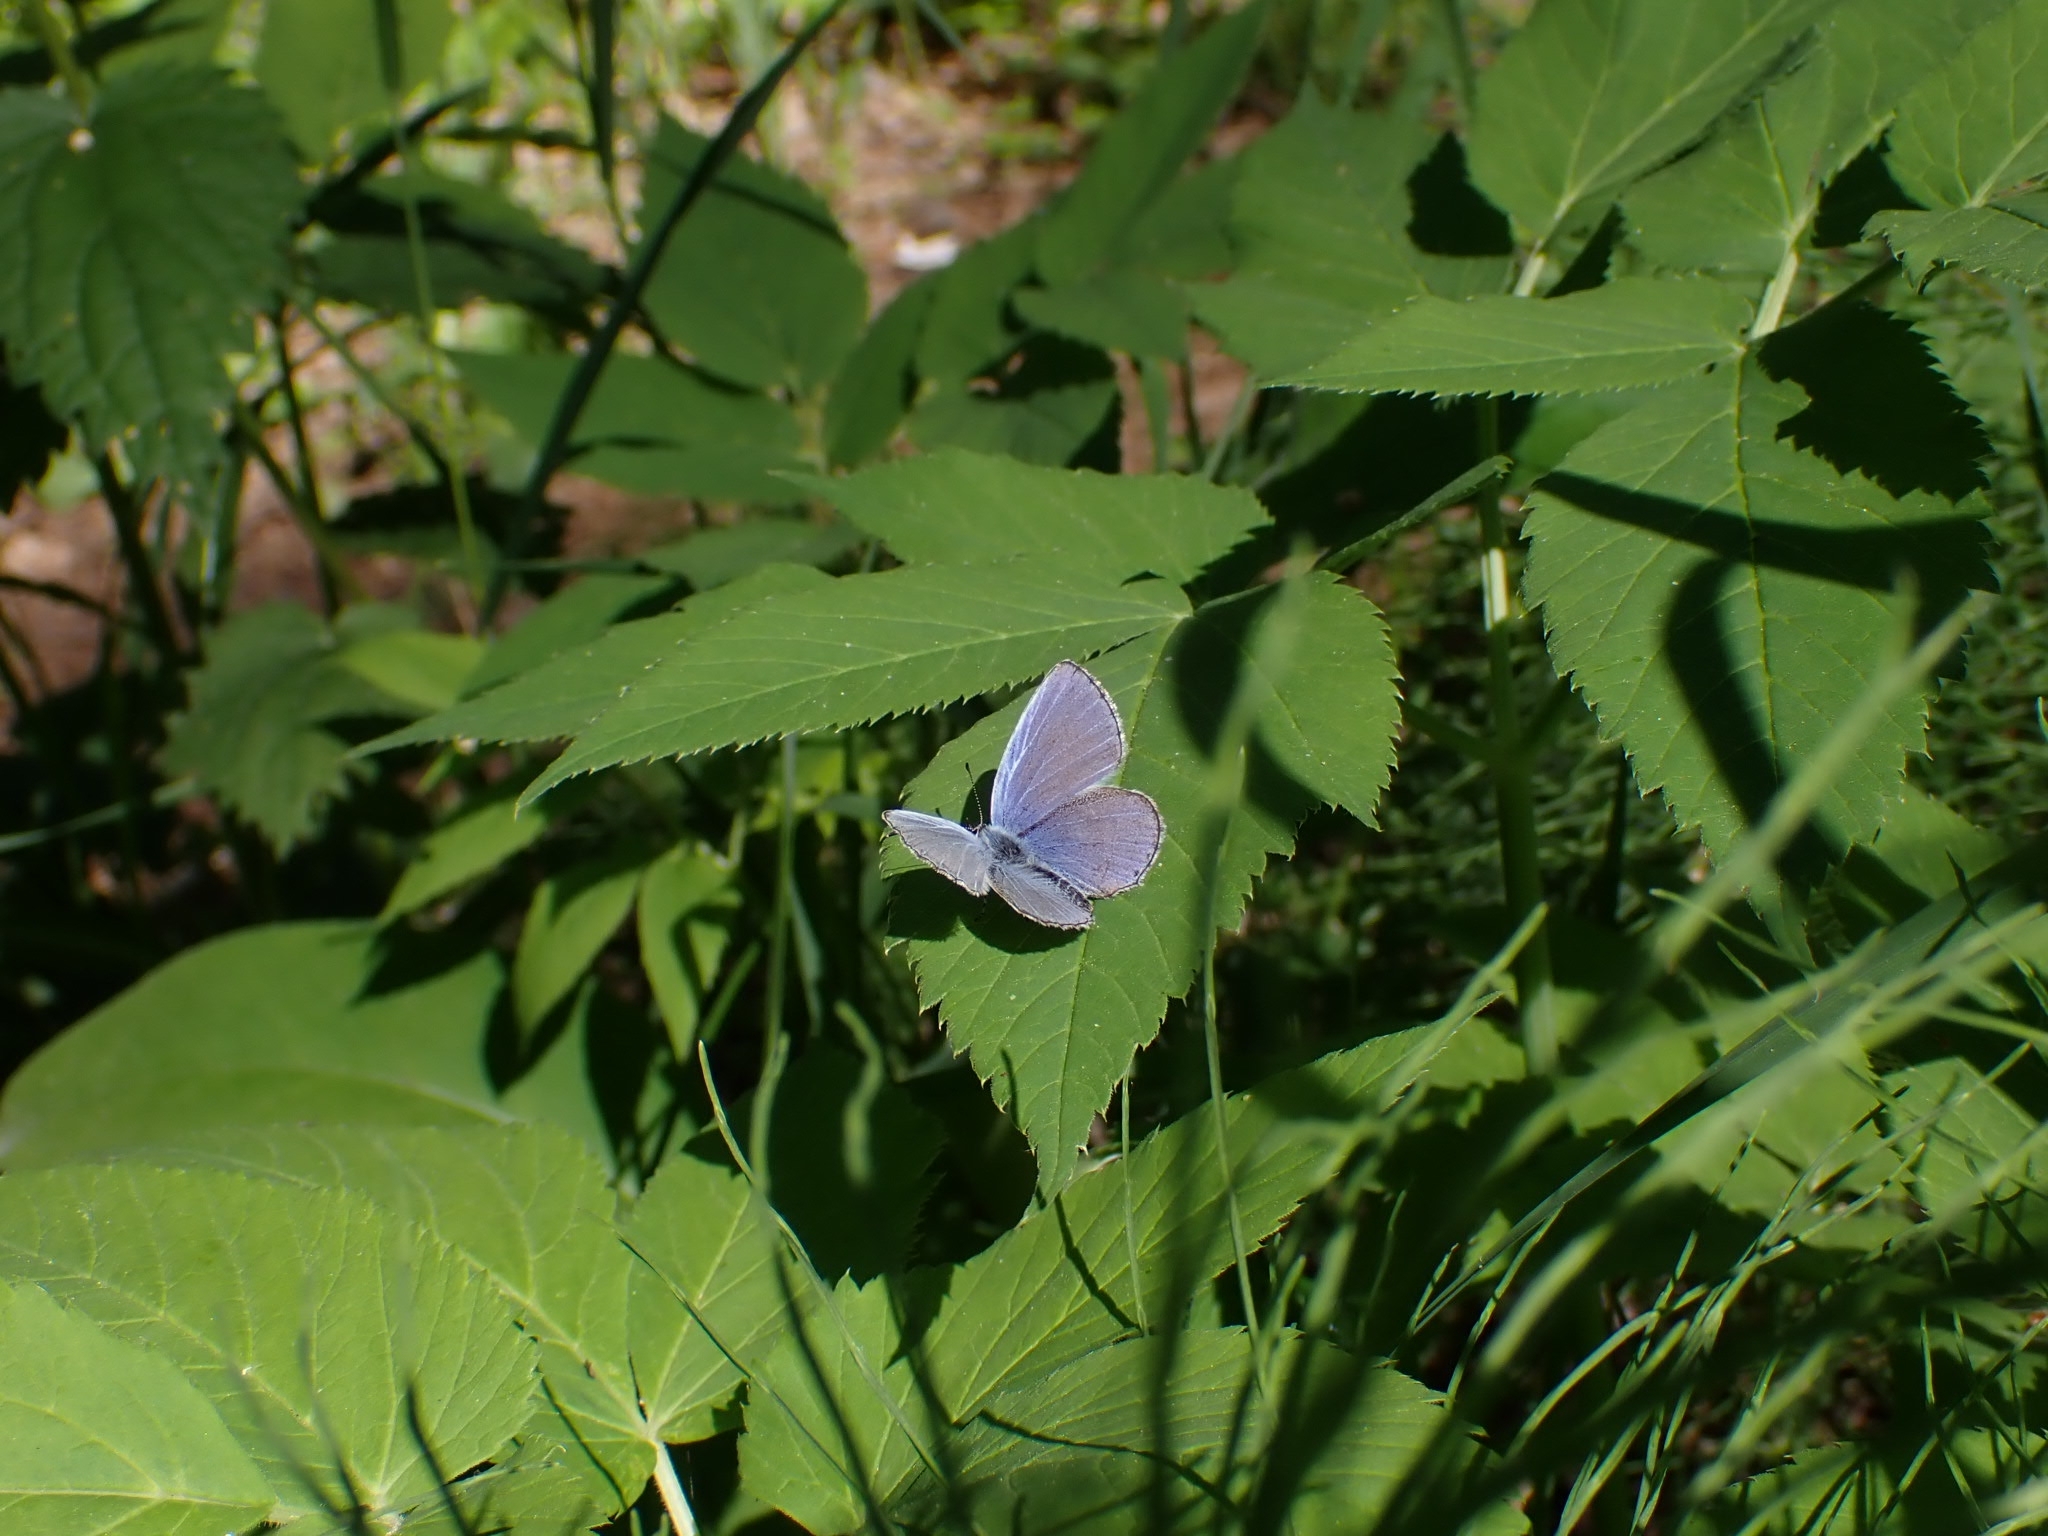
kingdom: Animalia
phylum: Arthropoda
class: Insecta
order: Lepidoptera
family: Lycaenidae
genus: Elkalyce
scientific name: Elkalyce alcetas
